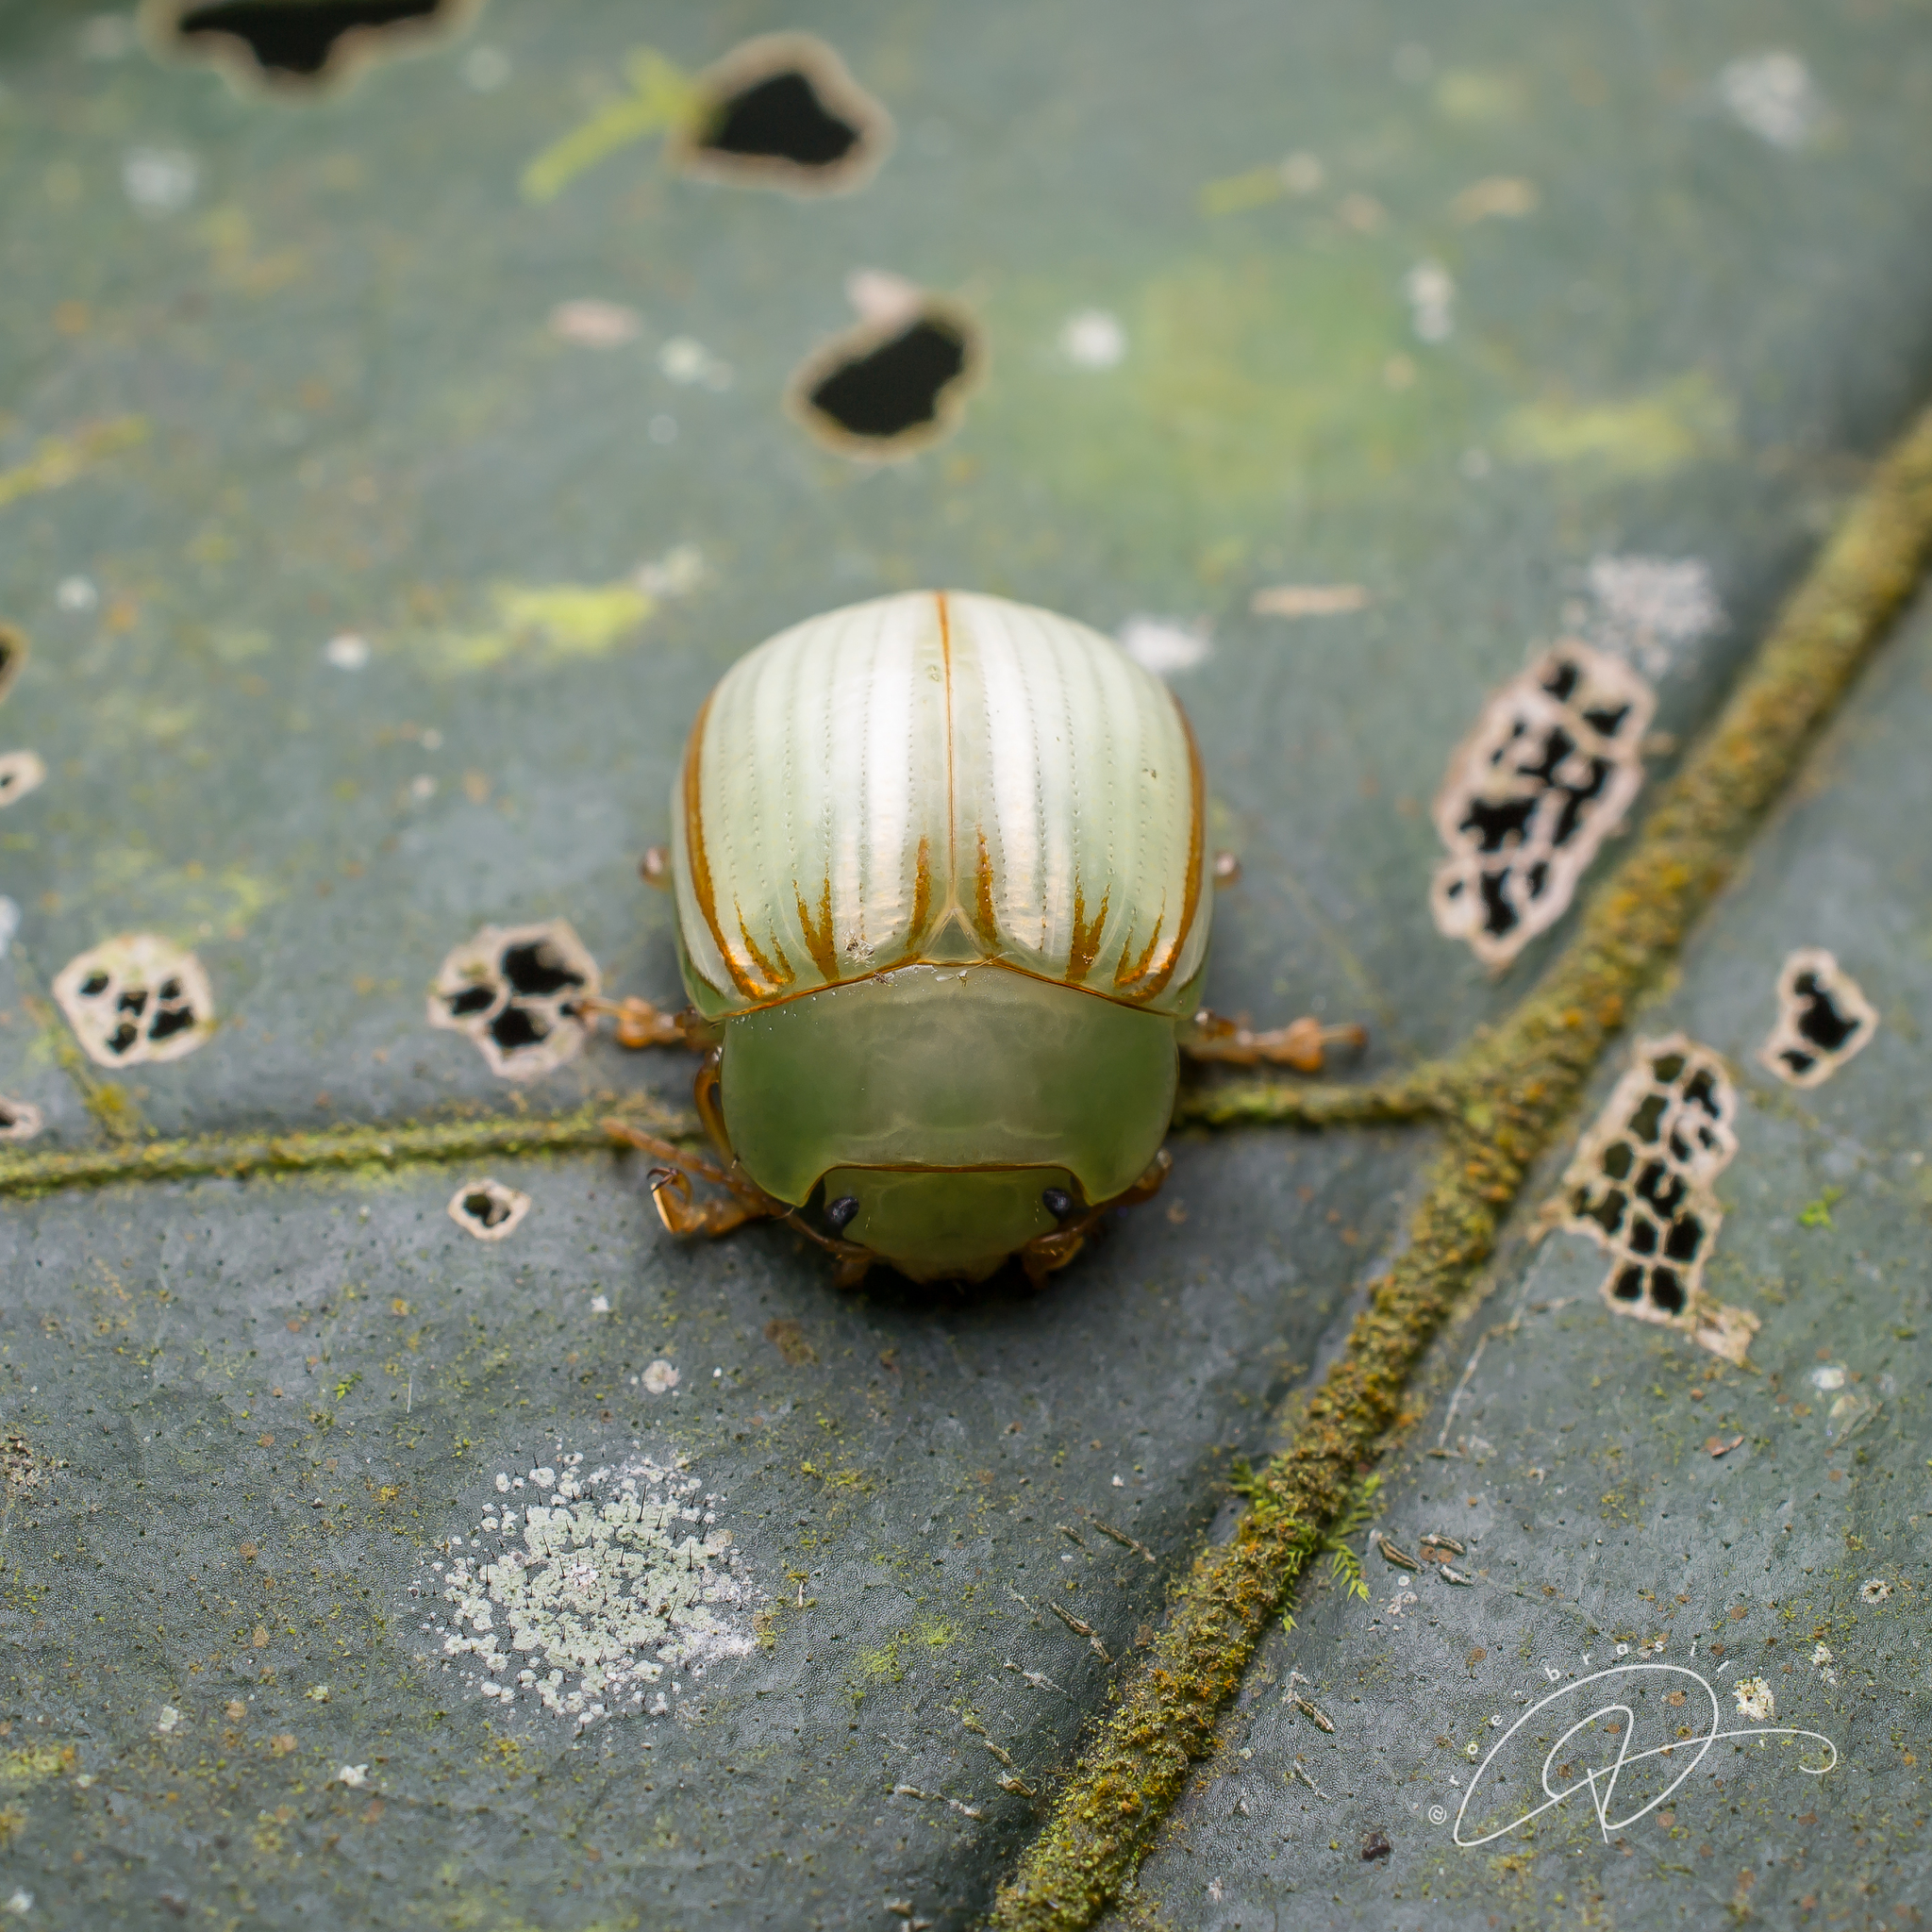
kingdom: Animalia
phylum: Arthropoda
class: Insecta
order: Coleoptera
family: Chrysomelidae
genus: Platyphora
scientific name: Platyphora
